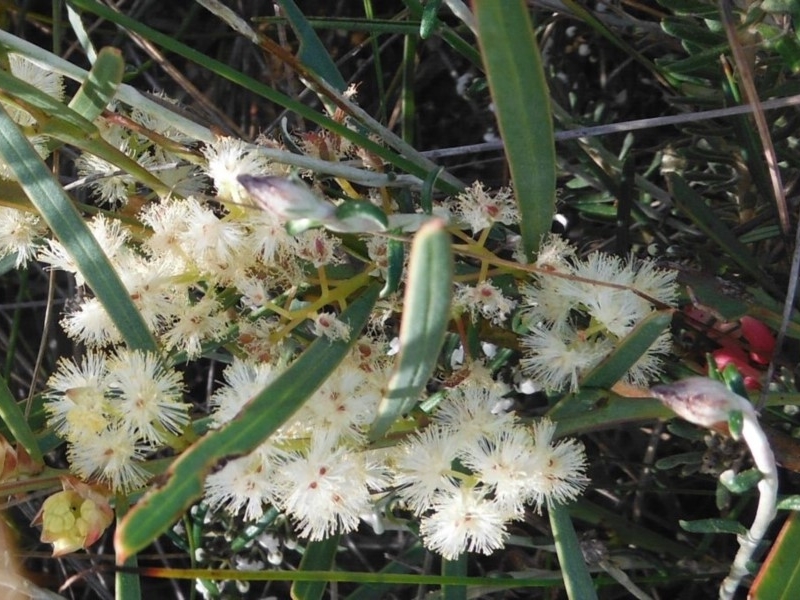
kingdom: Plantae
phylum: Tracheophyta
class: Magnoliopsida
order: Fabales
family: Fabaceae
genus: Acacia
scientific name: Acacia suaveolens
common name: Sweet acacia
